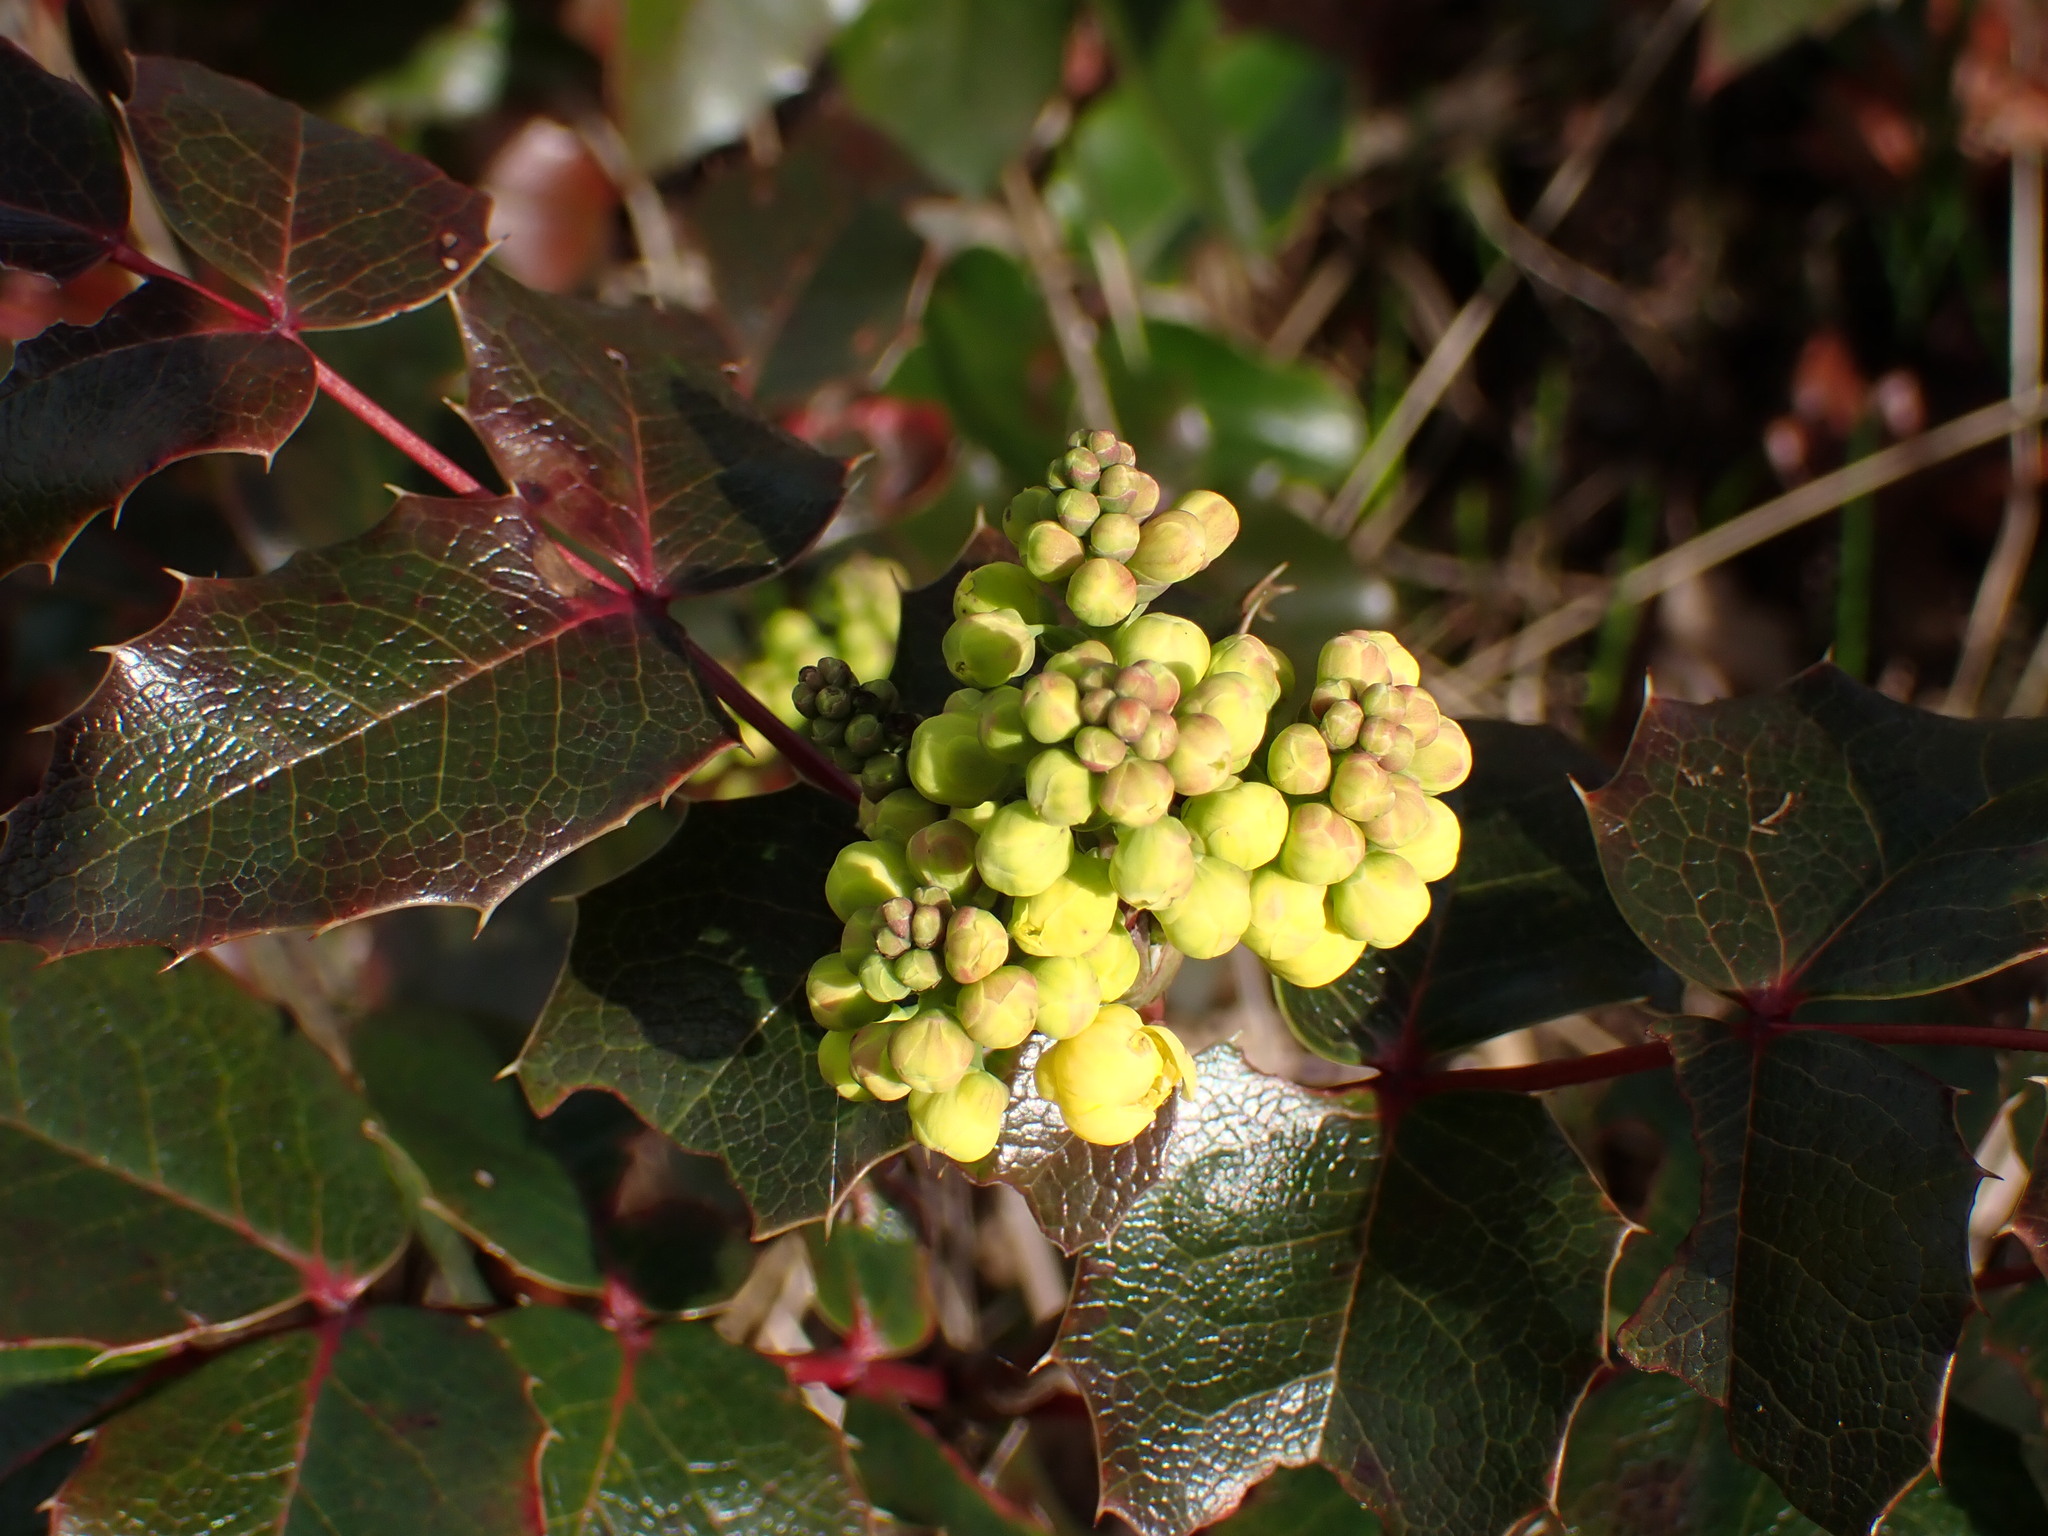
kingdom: Plantae
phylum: Tracheophyta
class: Magnoliopsida
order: Ranunculales
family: Berberidaceae
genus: Mahonia
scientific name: Mahonia aquifolium
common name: Oregon-grape
